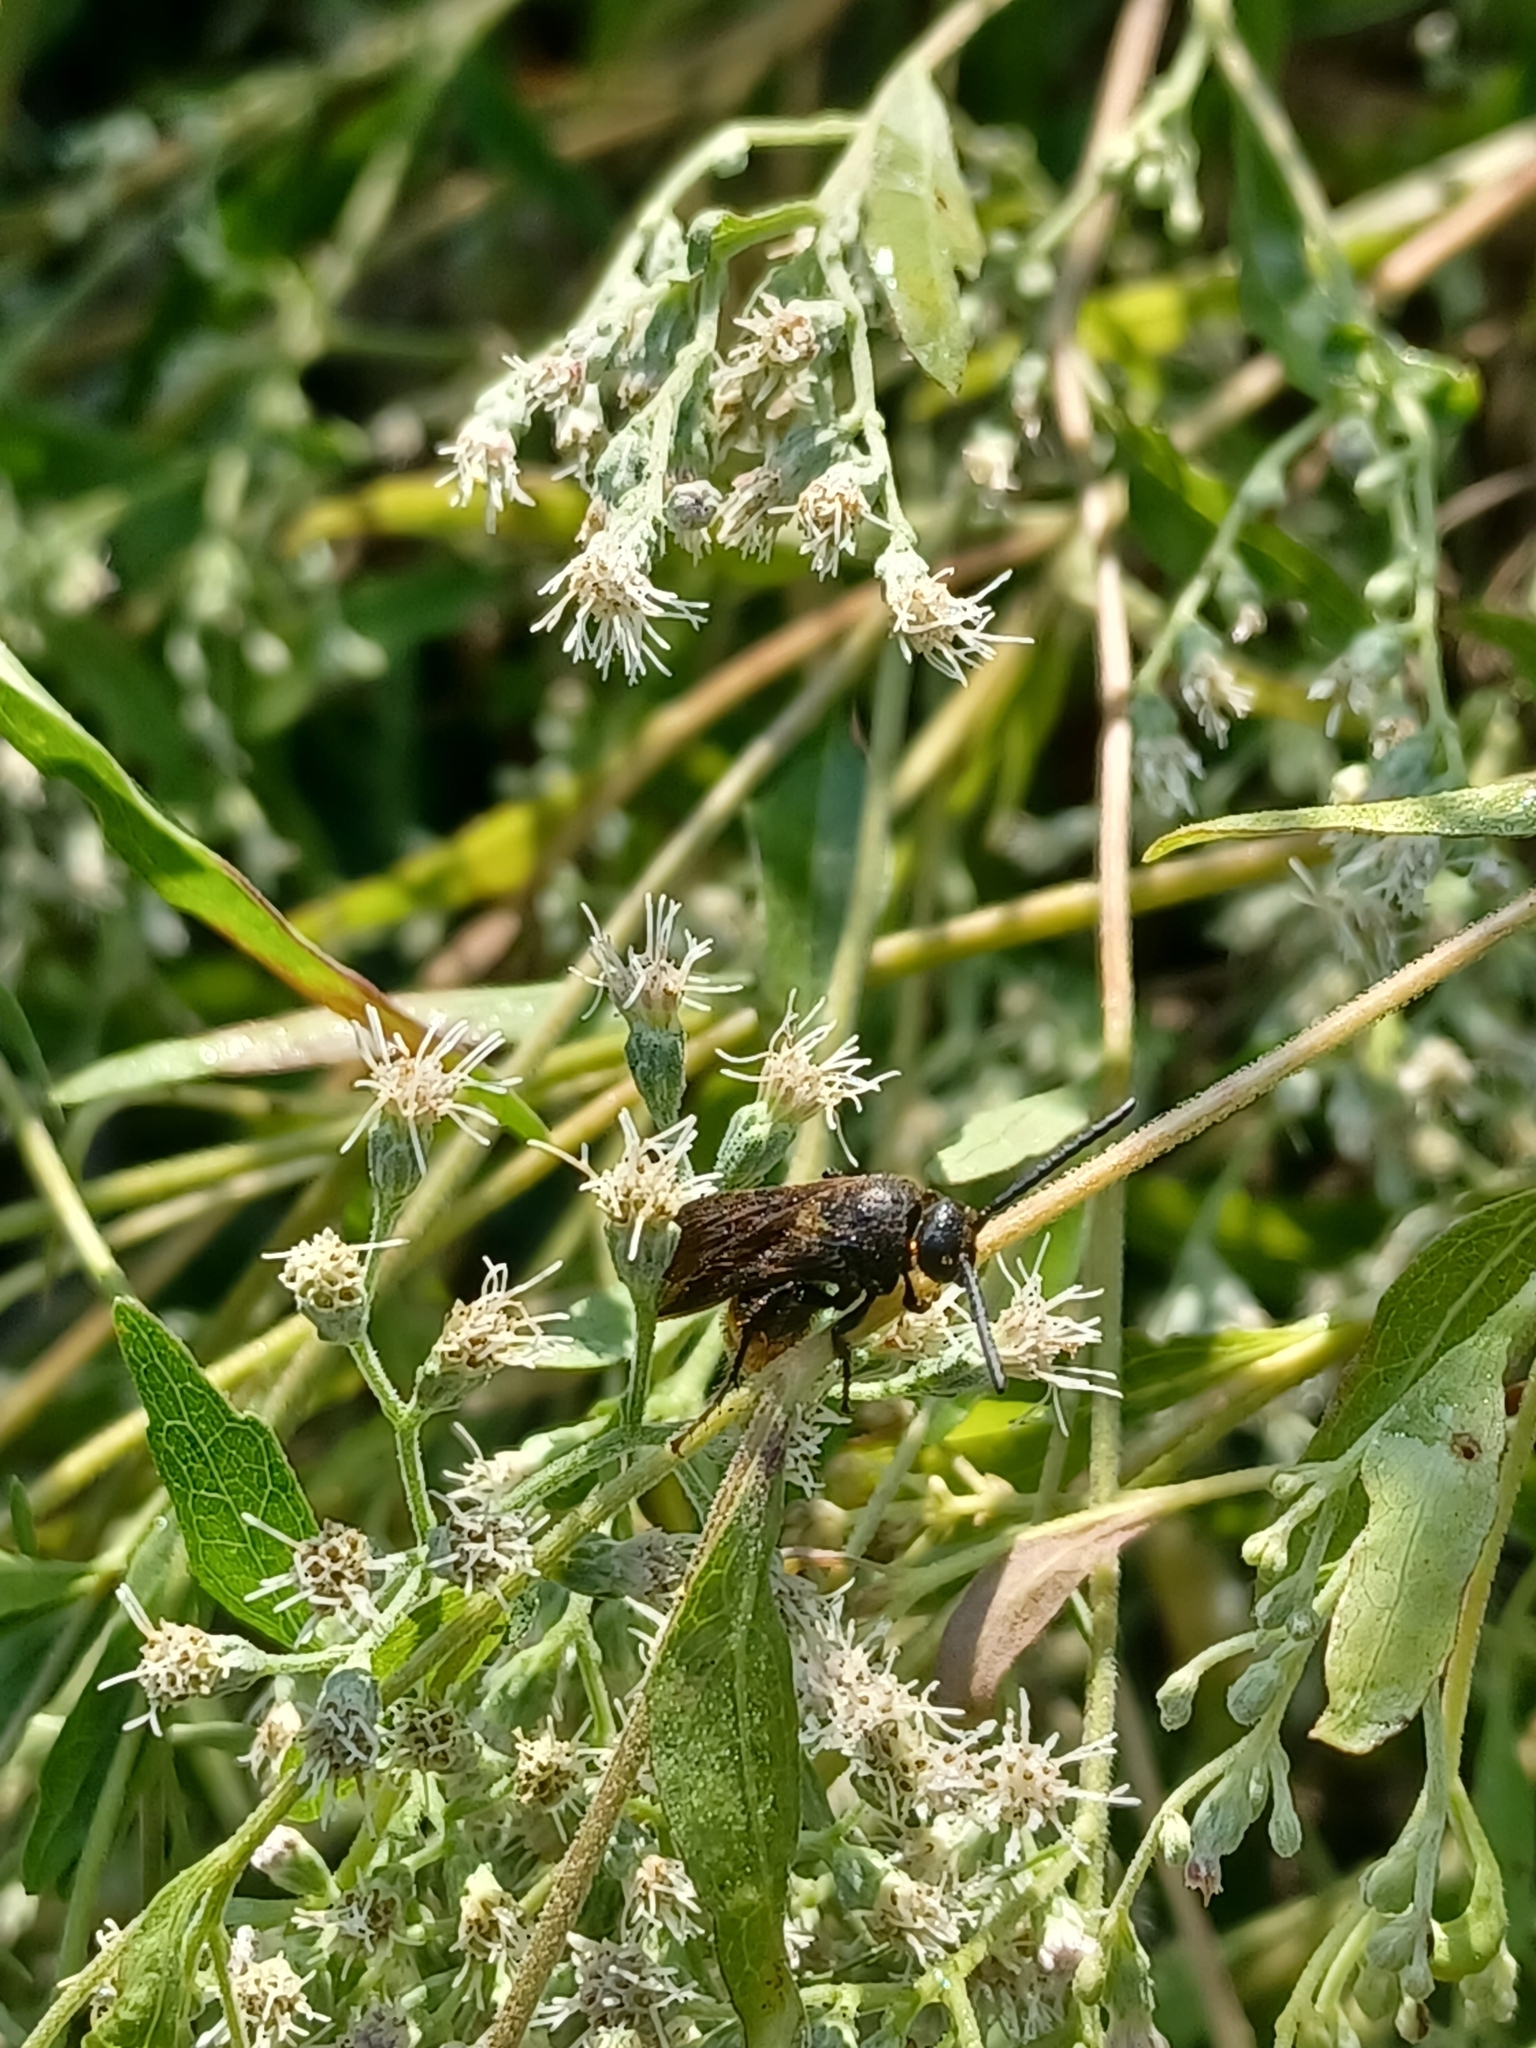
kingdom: Animalia
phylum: Arthropoda
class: Insecta
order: Hymenoptera
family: Scoliidae
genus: Scolia
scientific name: Scolia dubia
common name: Blue-winged scoliid wasp
